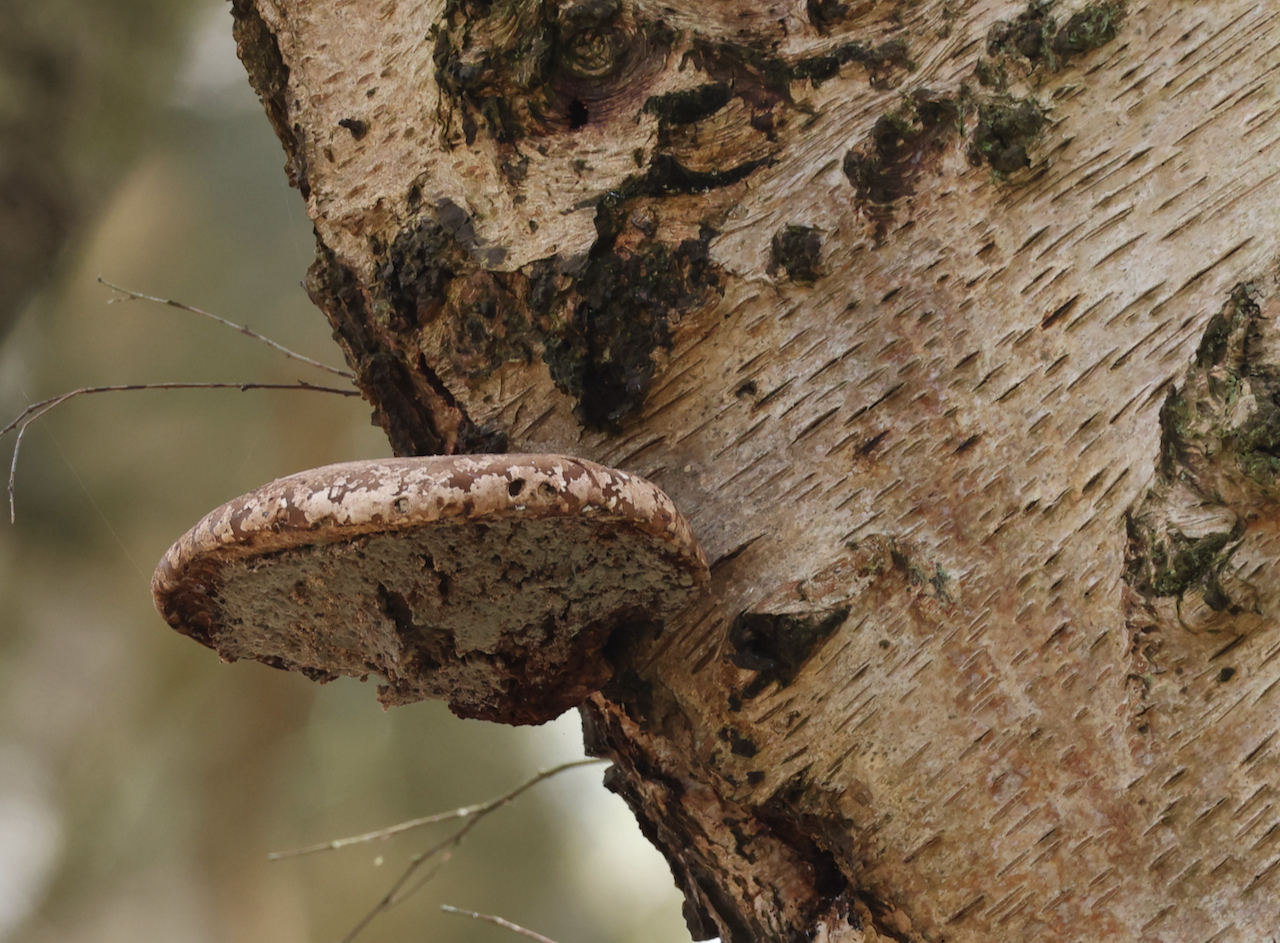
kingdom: Fungi
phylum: Basidiomycota
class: Agaricomycetes
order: Polyporales
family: Fomitopsidaceae
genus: Fomitopsis
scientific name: Fomitopsis betulina
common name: Birch polypore
